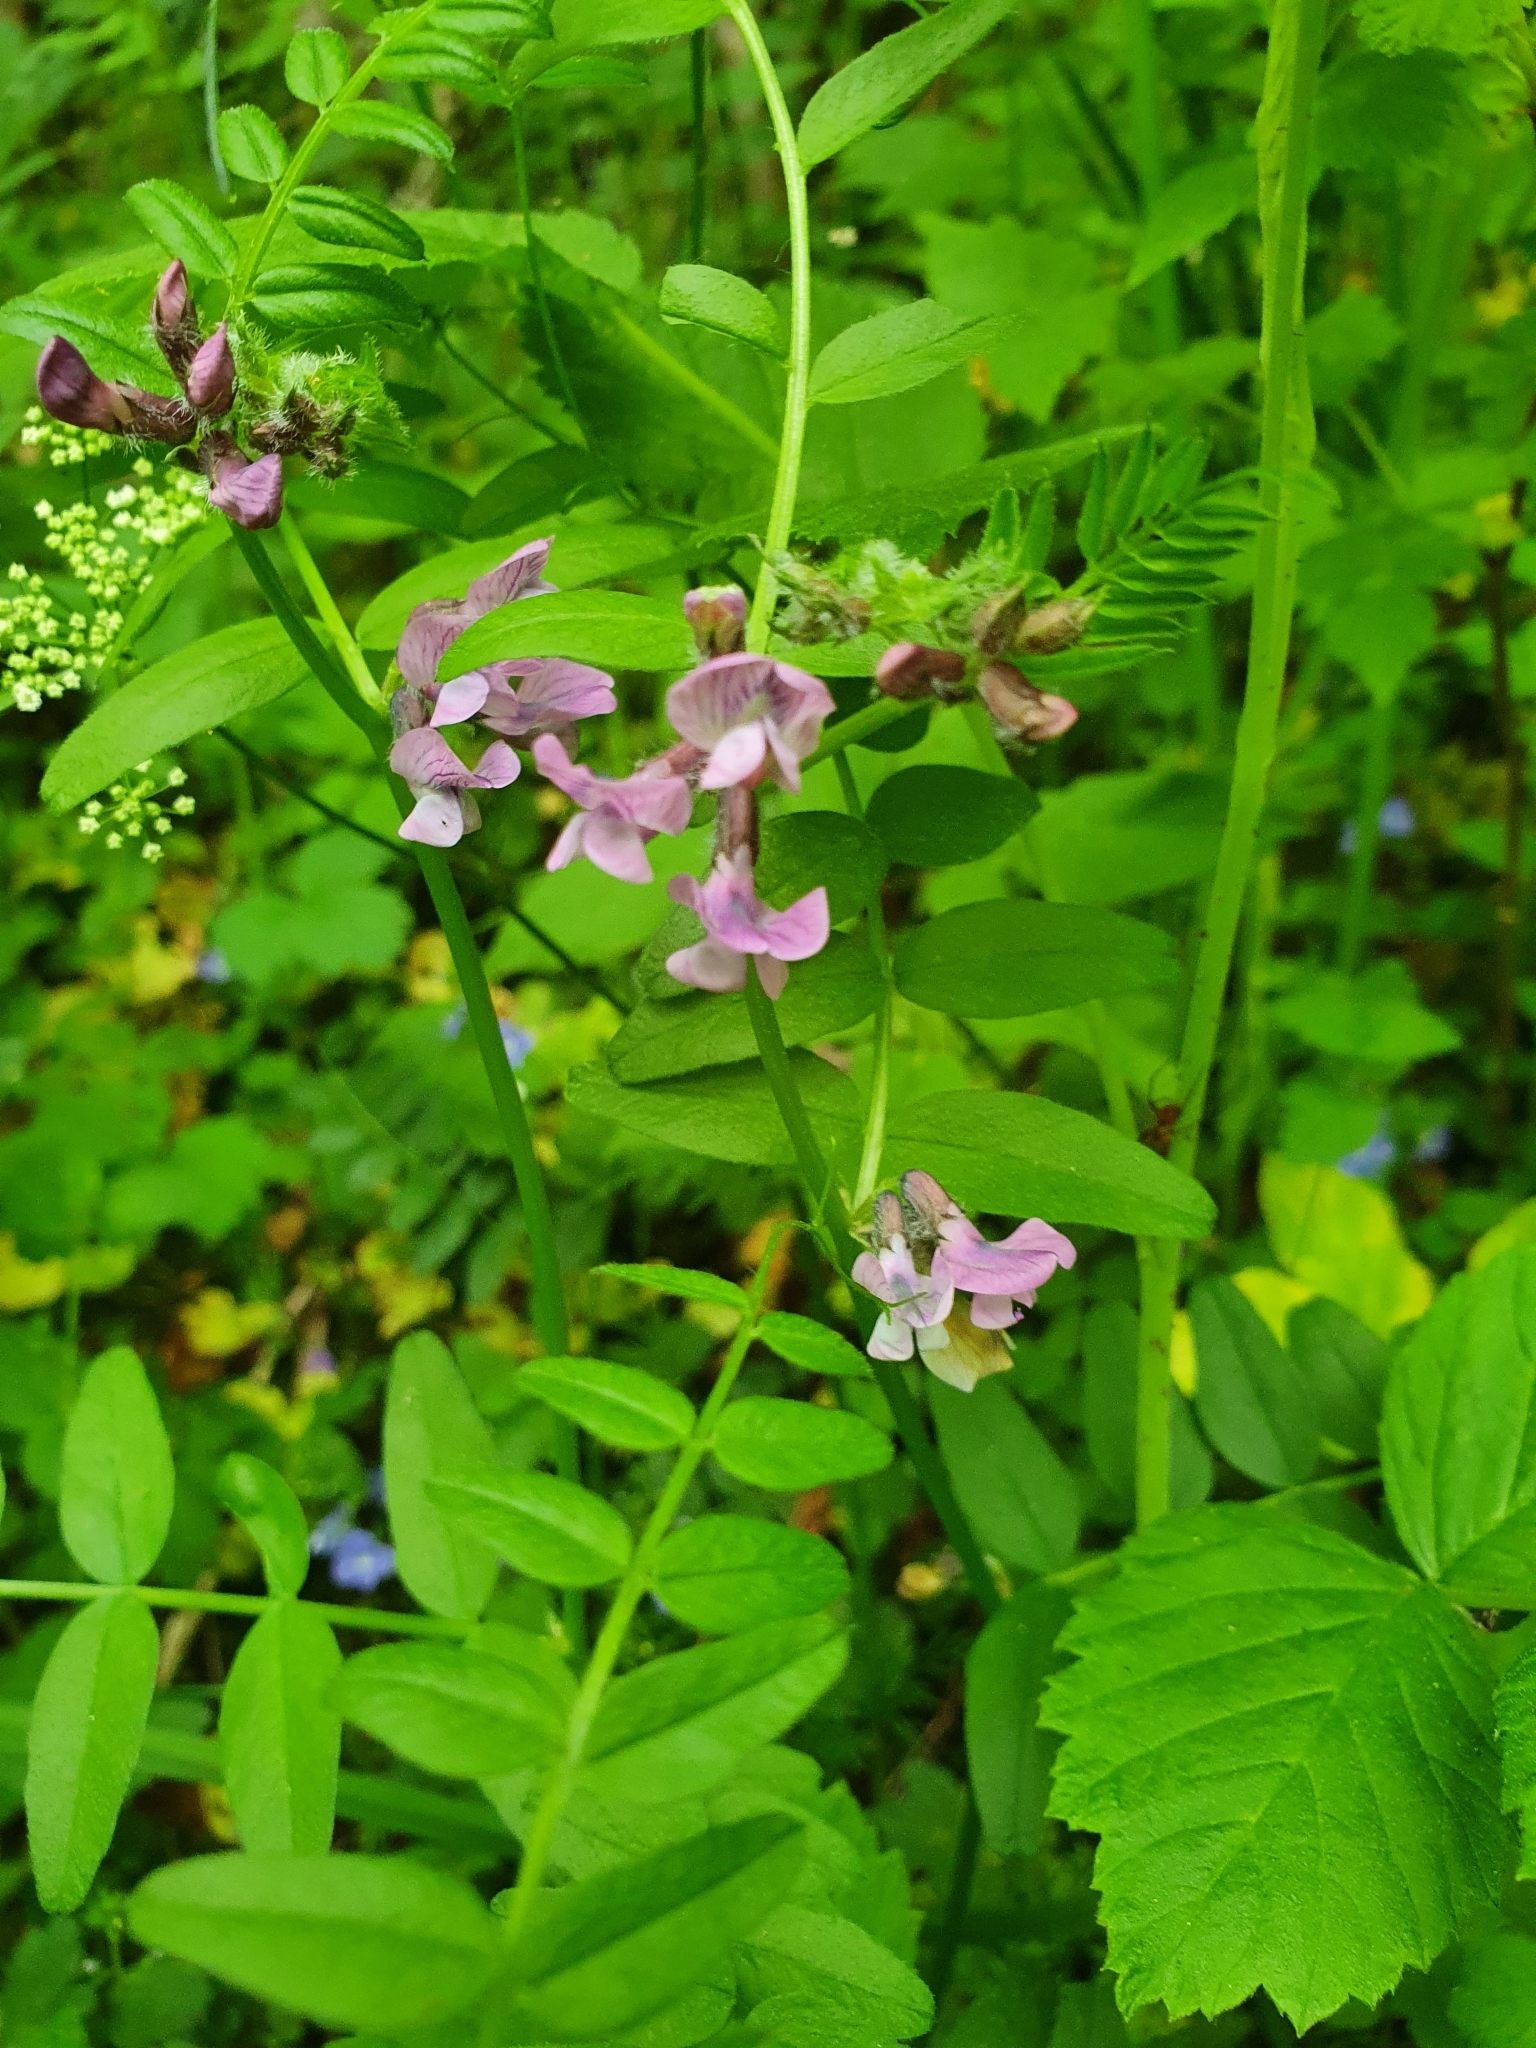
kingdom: Plantae
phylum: Tracheophyta
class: Magnoliopsida
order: Fabales
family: Fabaceae
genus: Vicia
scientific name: Vicia sepium
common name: Bush vetch
